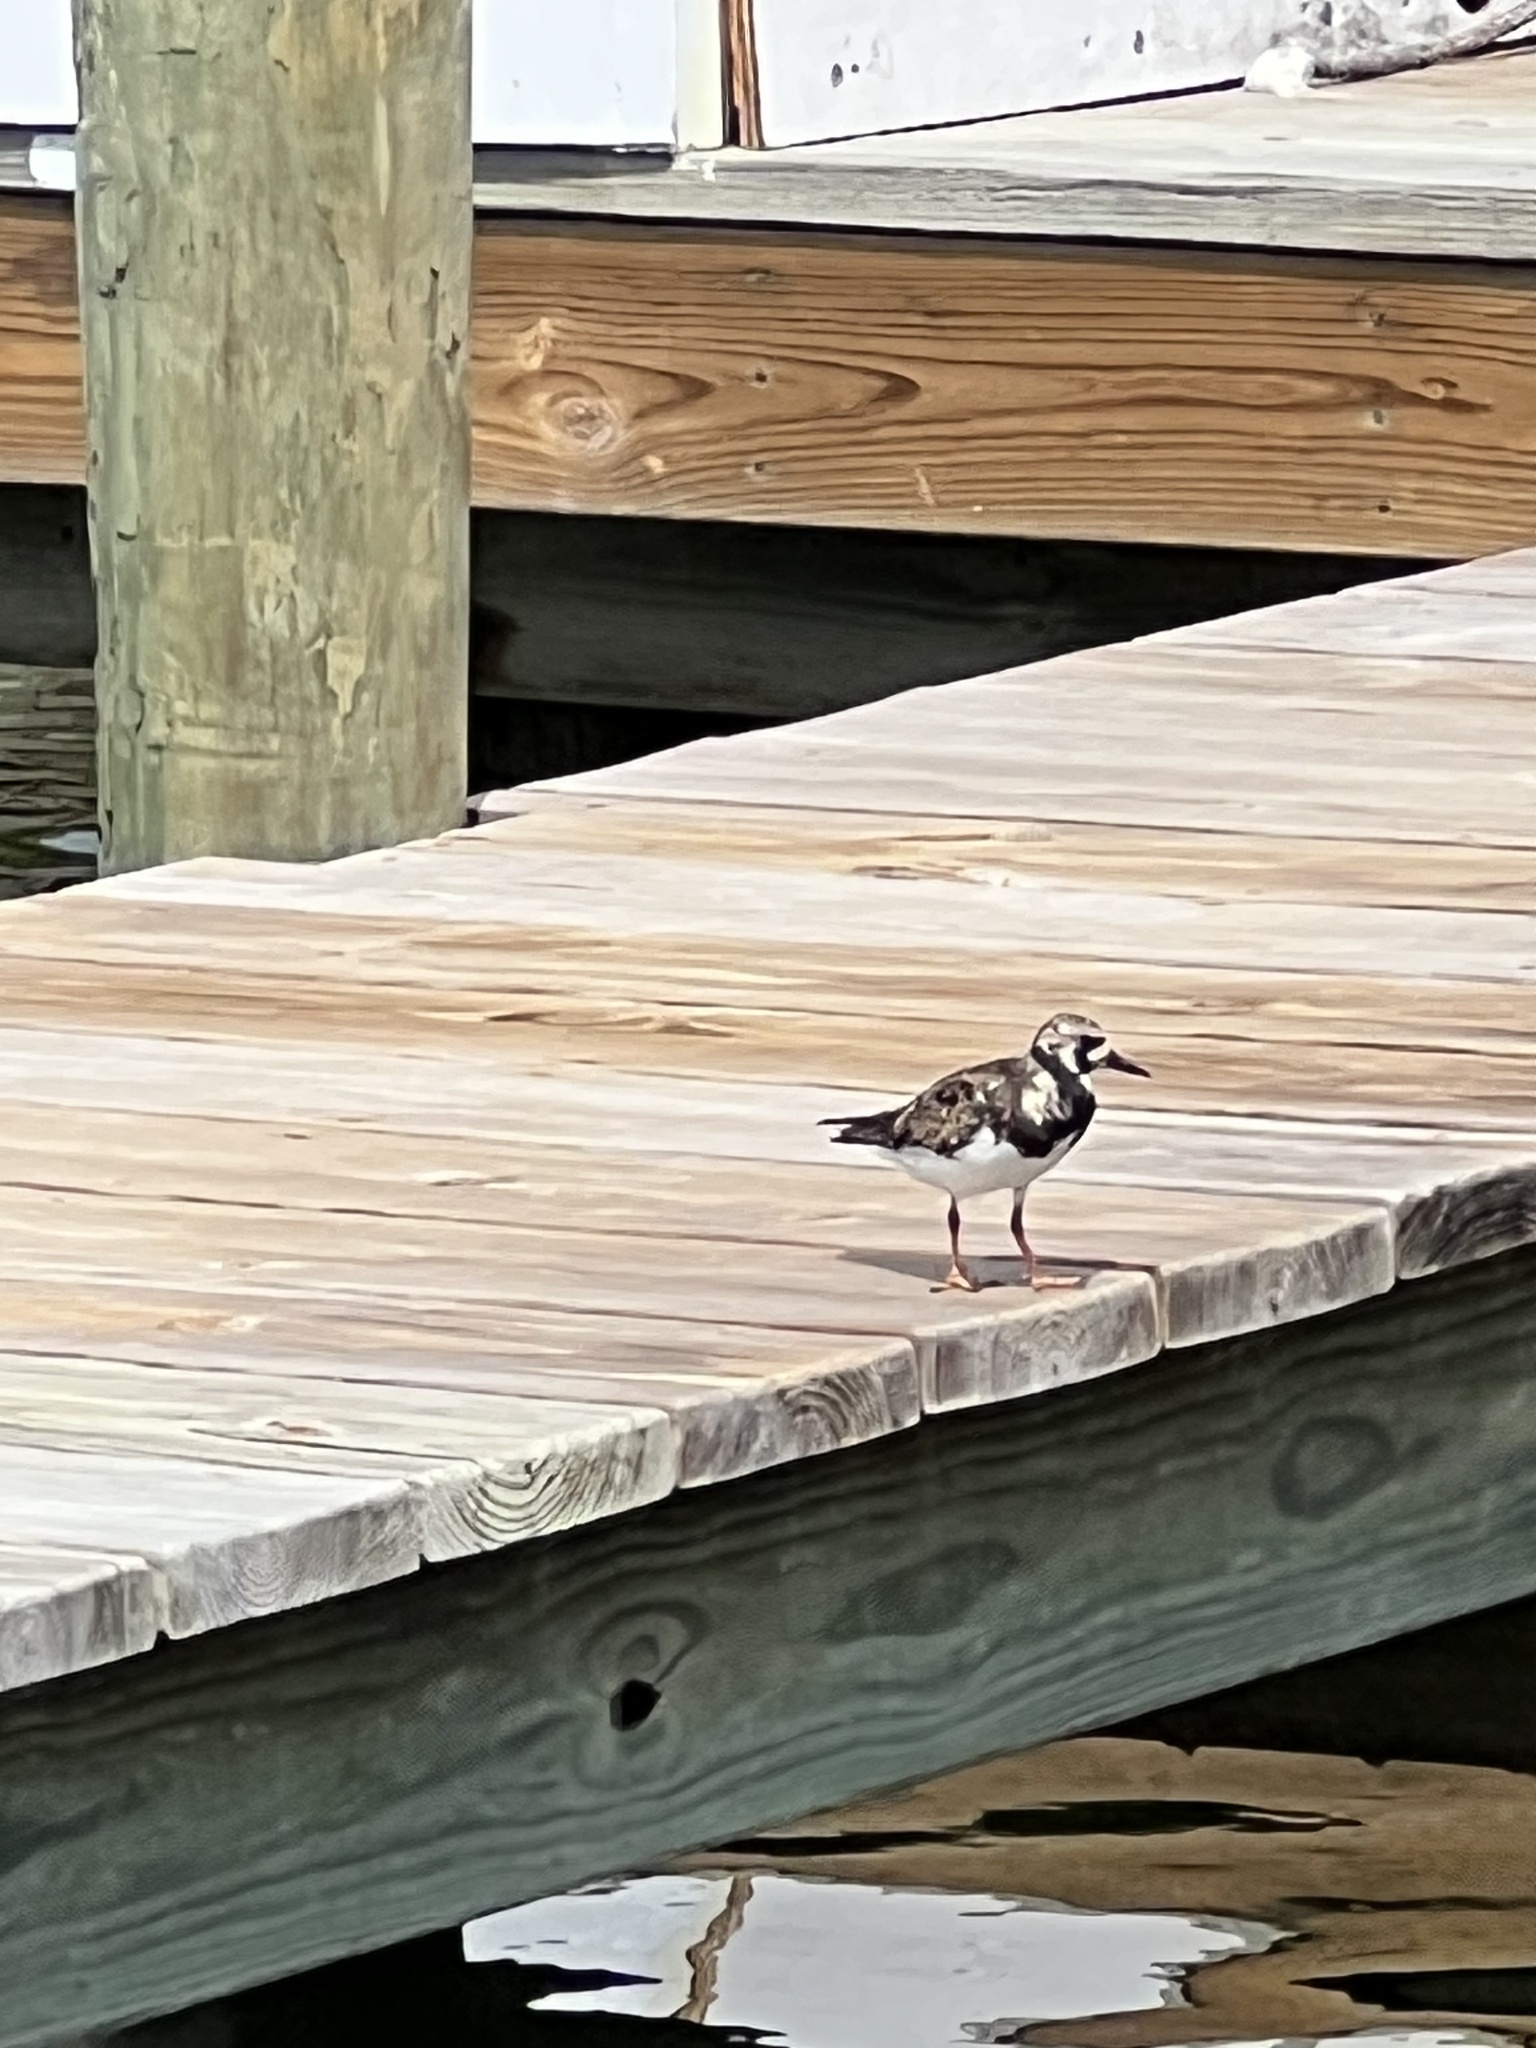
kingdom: Animalia
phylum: Chordata
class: Aves
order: Charadriiformes
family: Scolopacidae
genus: Arenaria
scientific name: Arenaria interpres
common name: Ruddy turnstone
